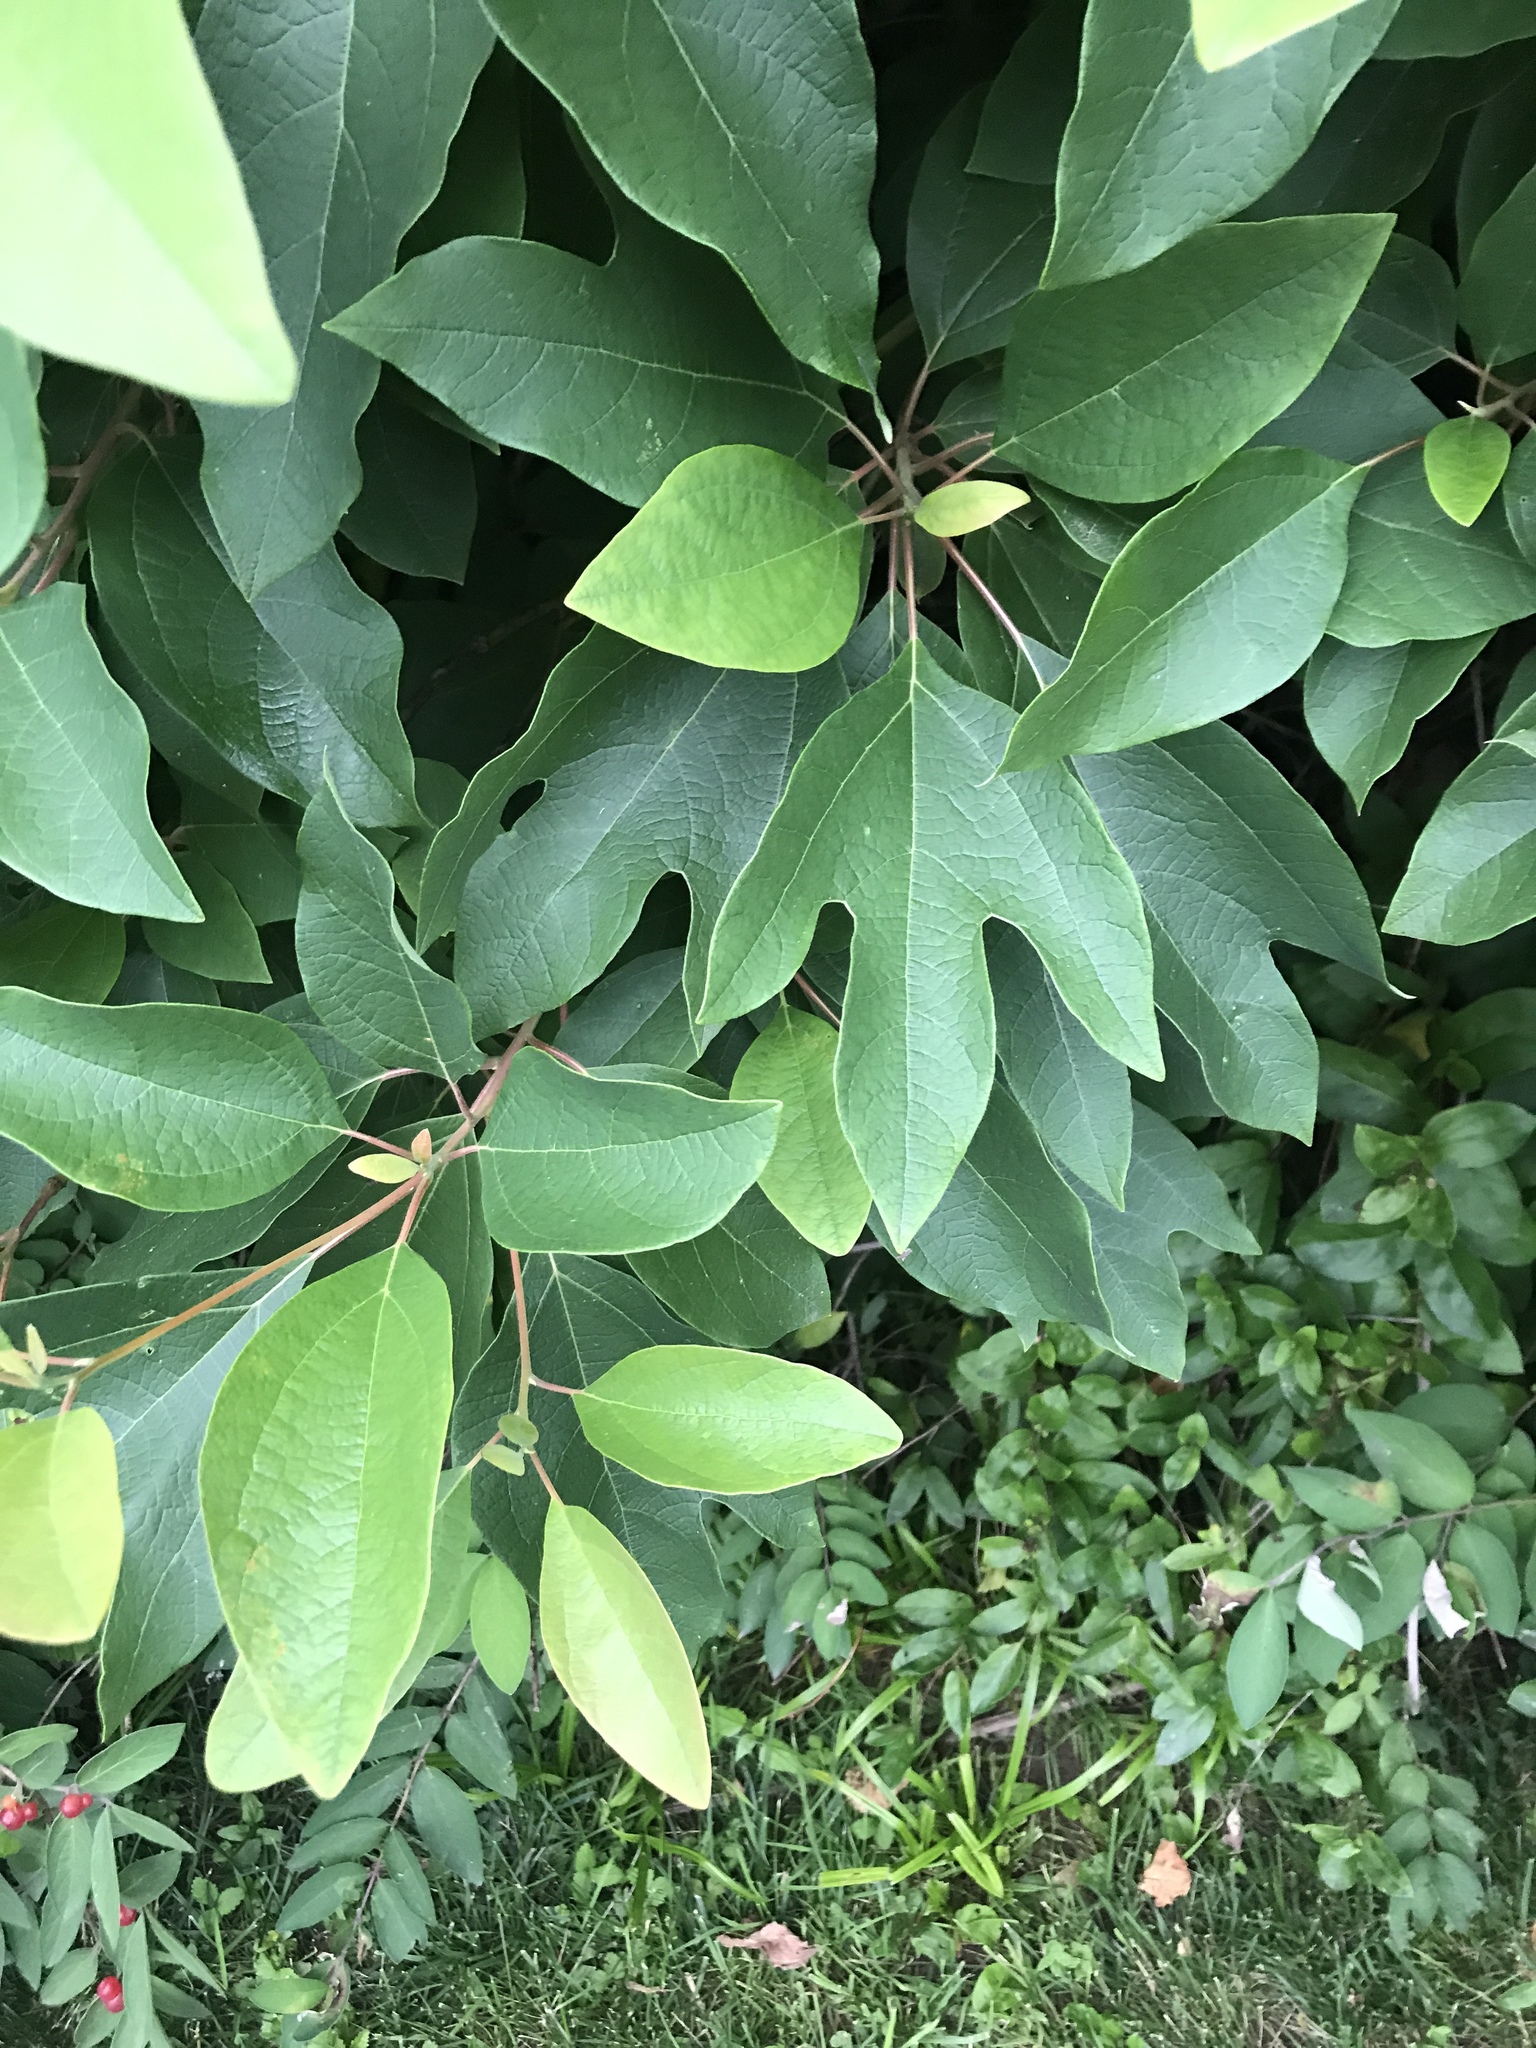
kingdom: Plantae
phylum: Tracheophyta
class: Magnoliopsida
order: Laurales
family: Lauraceae
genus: Sassafras
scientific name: Sassafras albidum
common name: Sassafras
